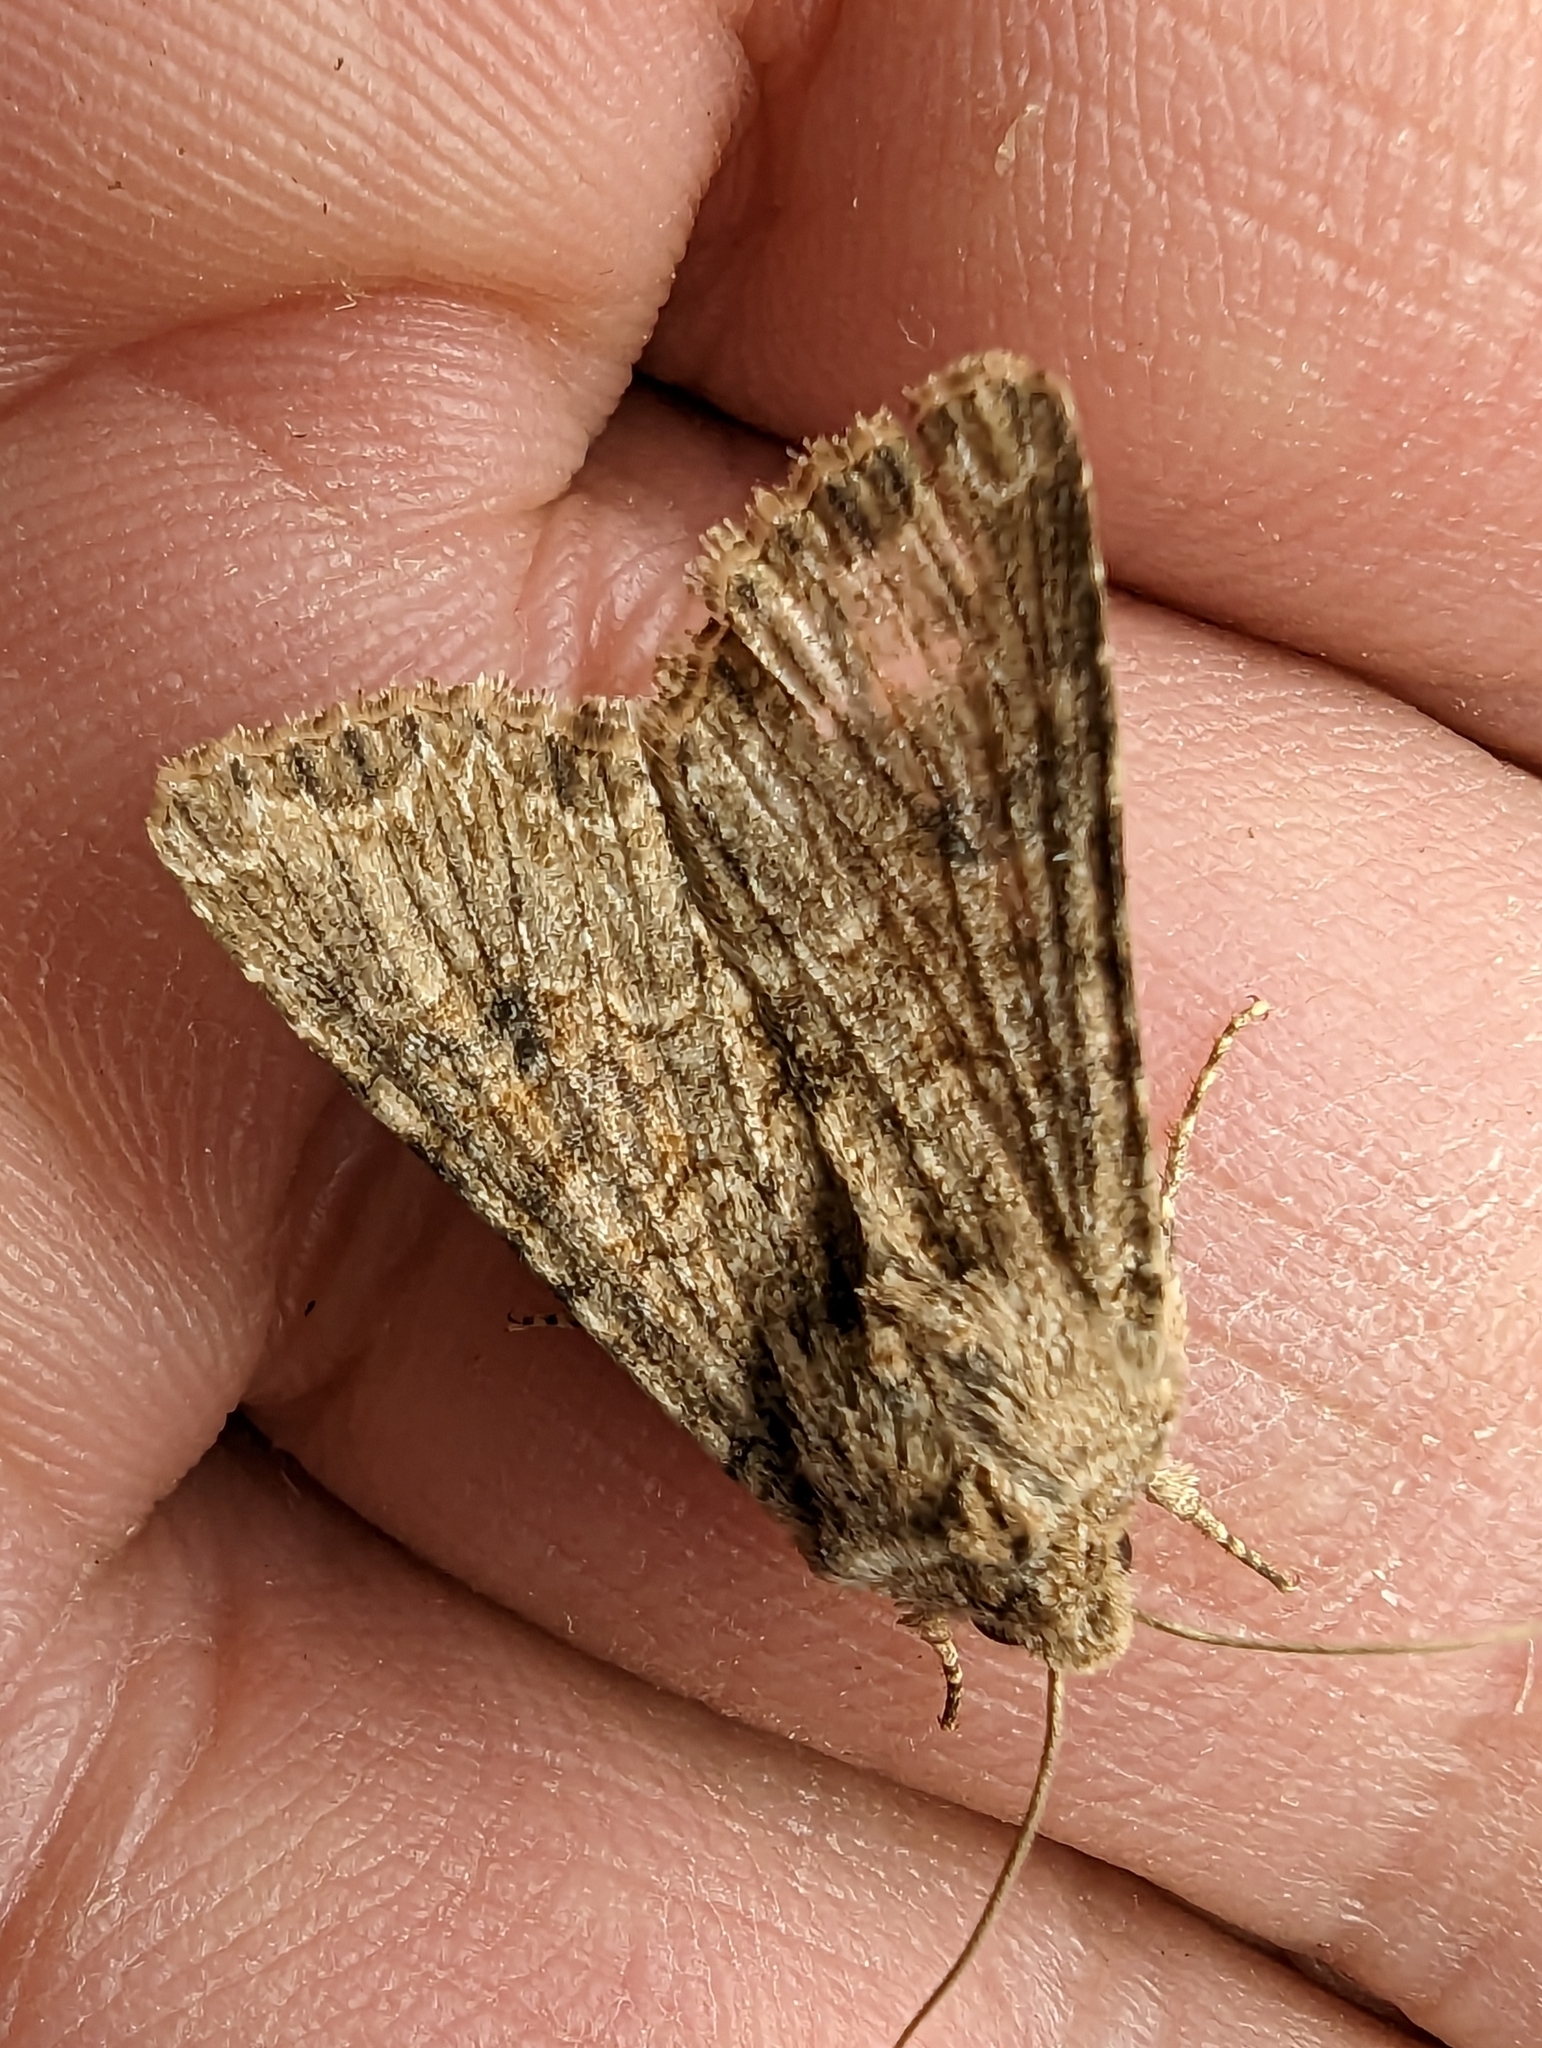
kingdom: Animalia
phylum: Arthropoda
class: Insecta
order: Lepidoptera
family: Noctuidae
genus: Anarta
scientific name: Anarta trifolii
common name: Clover cutworm moth
